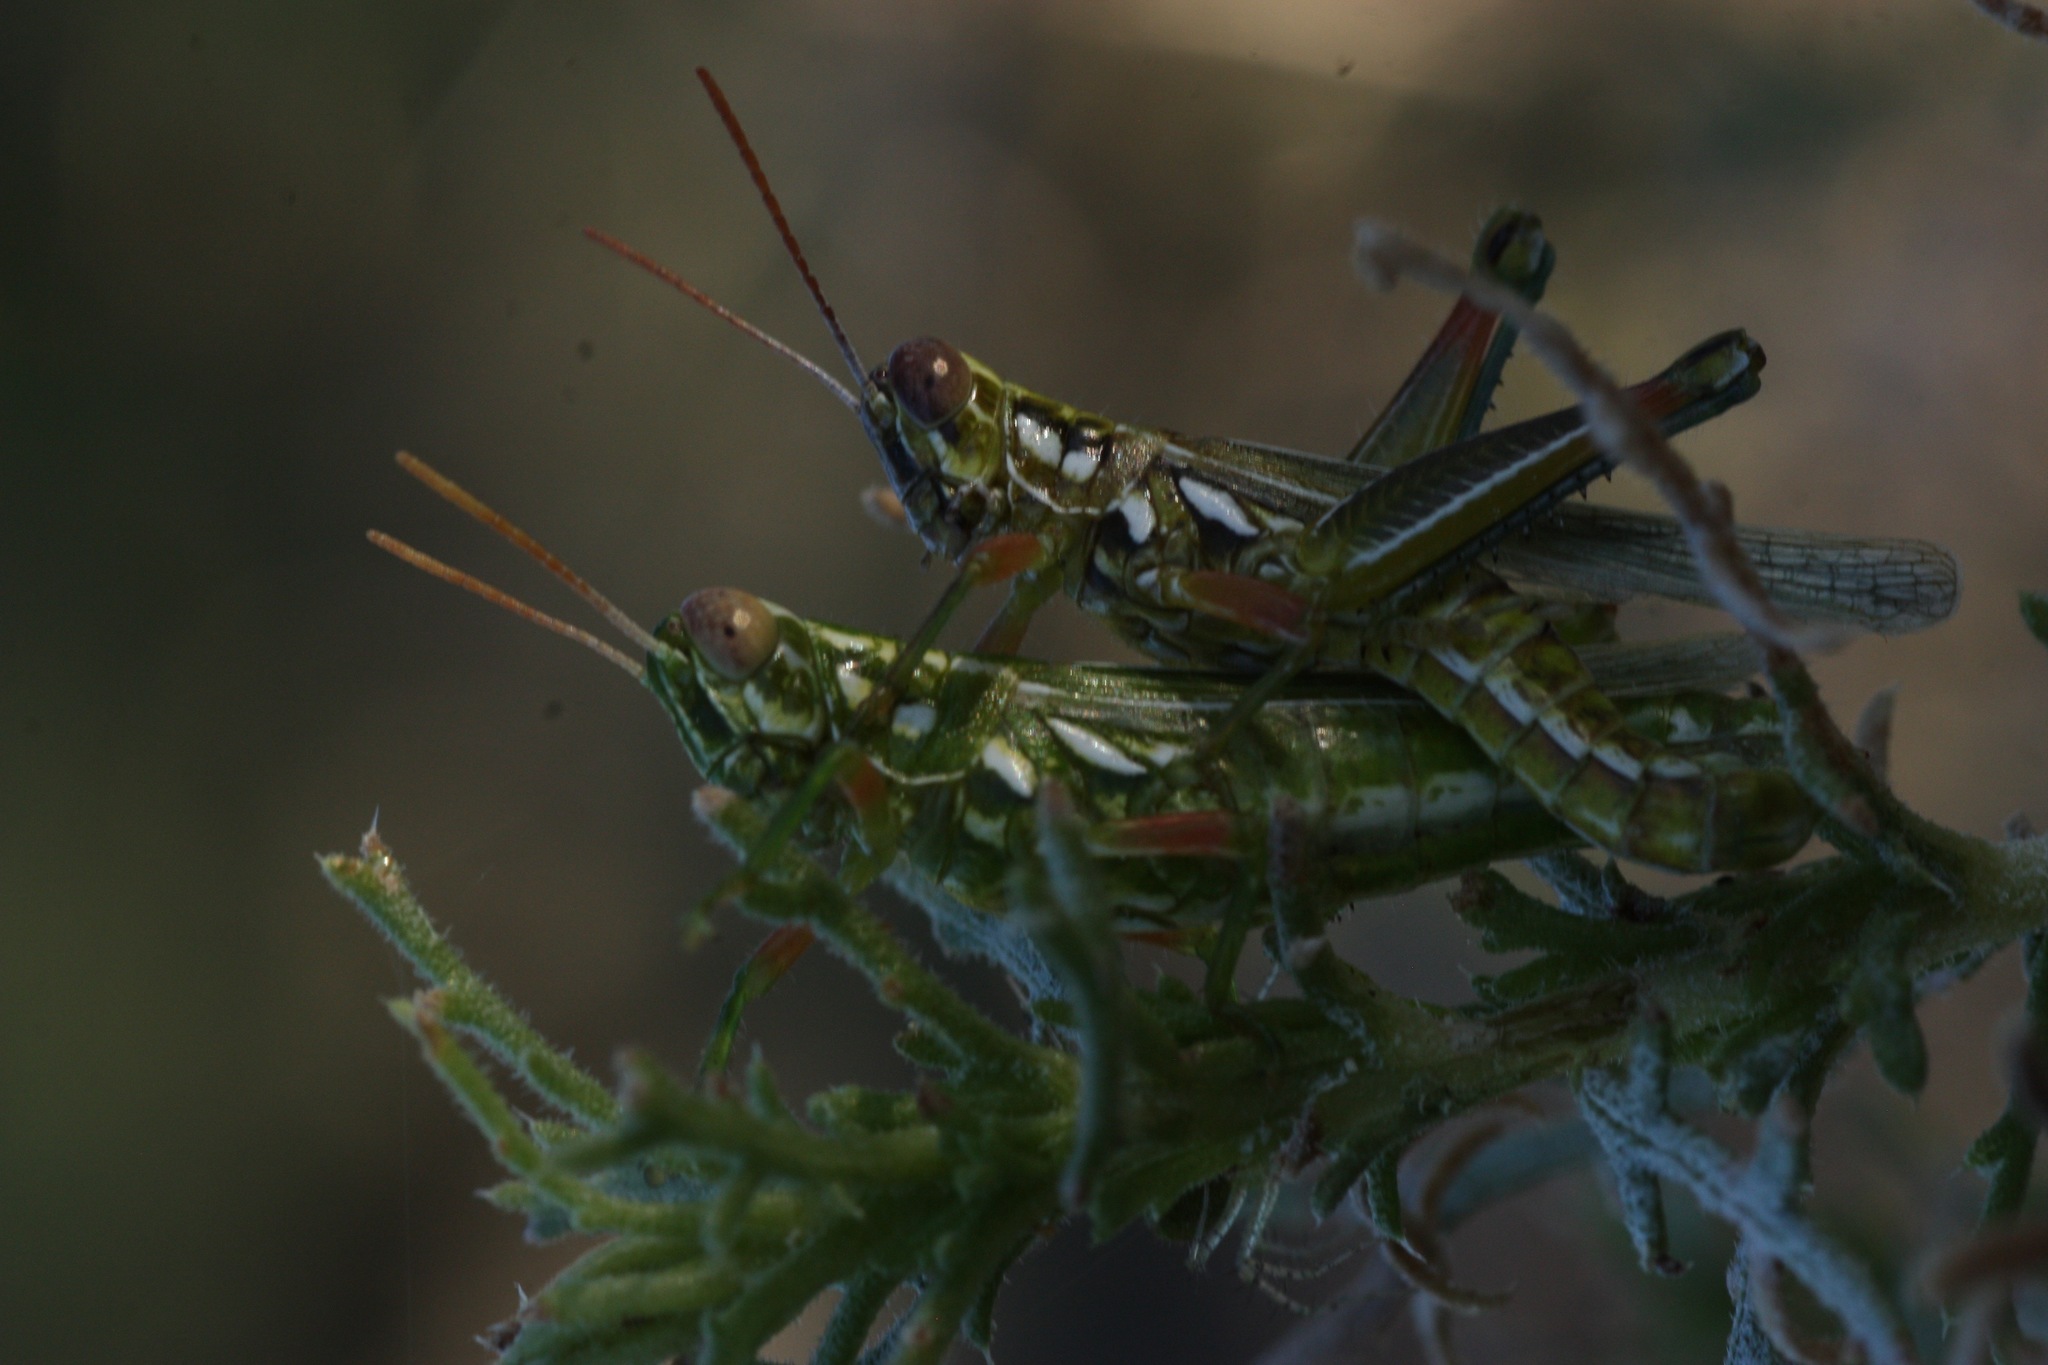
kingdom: Animalia
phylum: Arthropoda
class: Insecta
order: Orthoptera
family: Acrididae
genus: Hesperotettix
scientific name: Hesperotettix viridis
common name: Meadow purple-striped grasshopper
